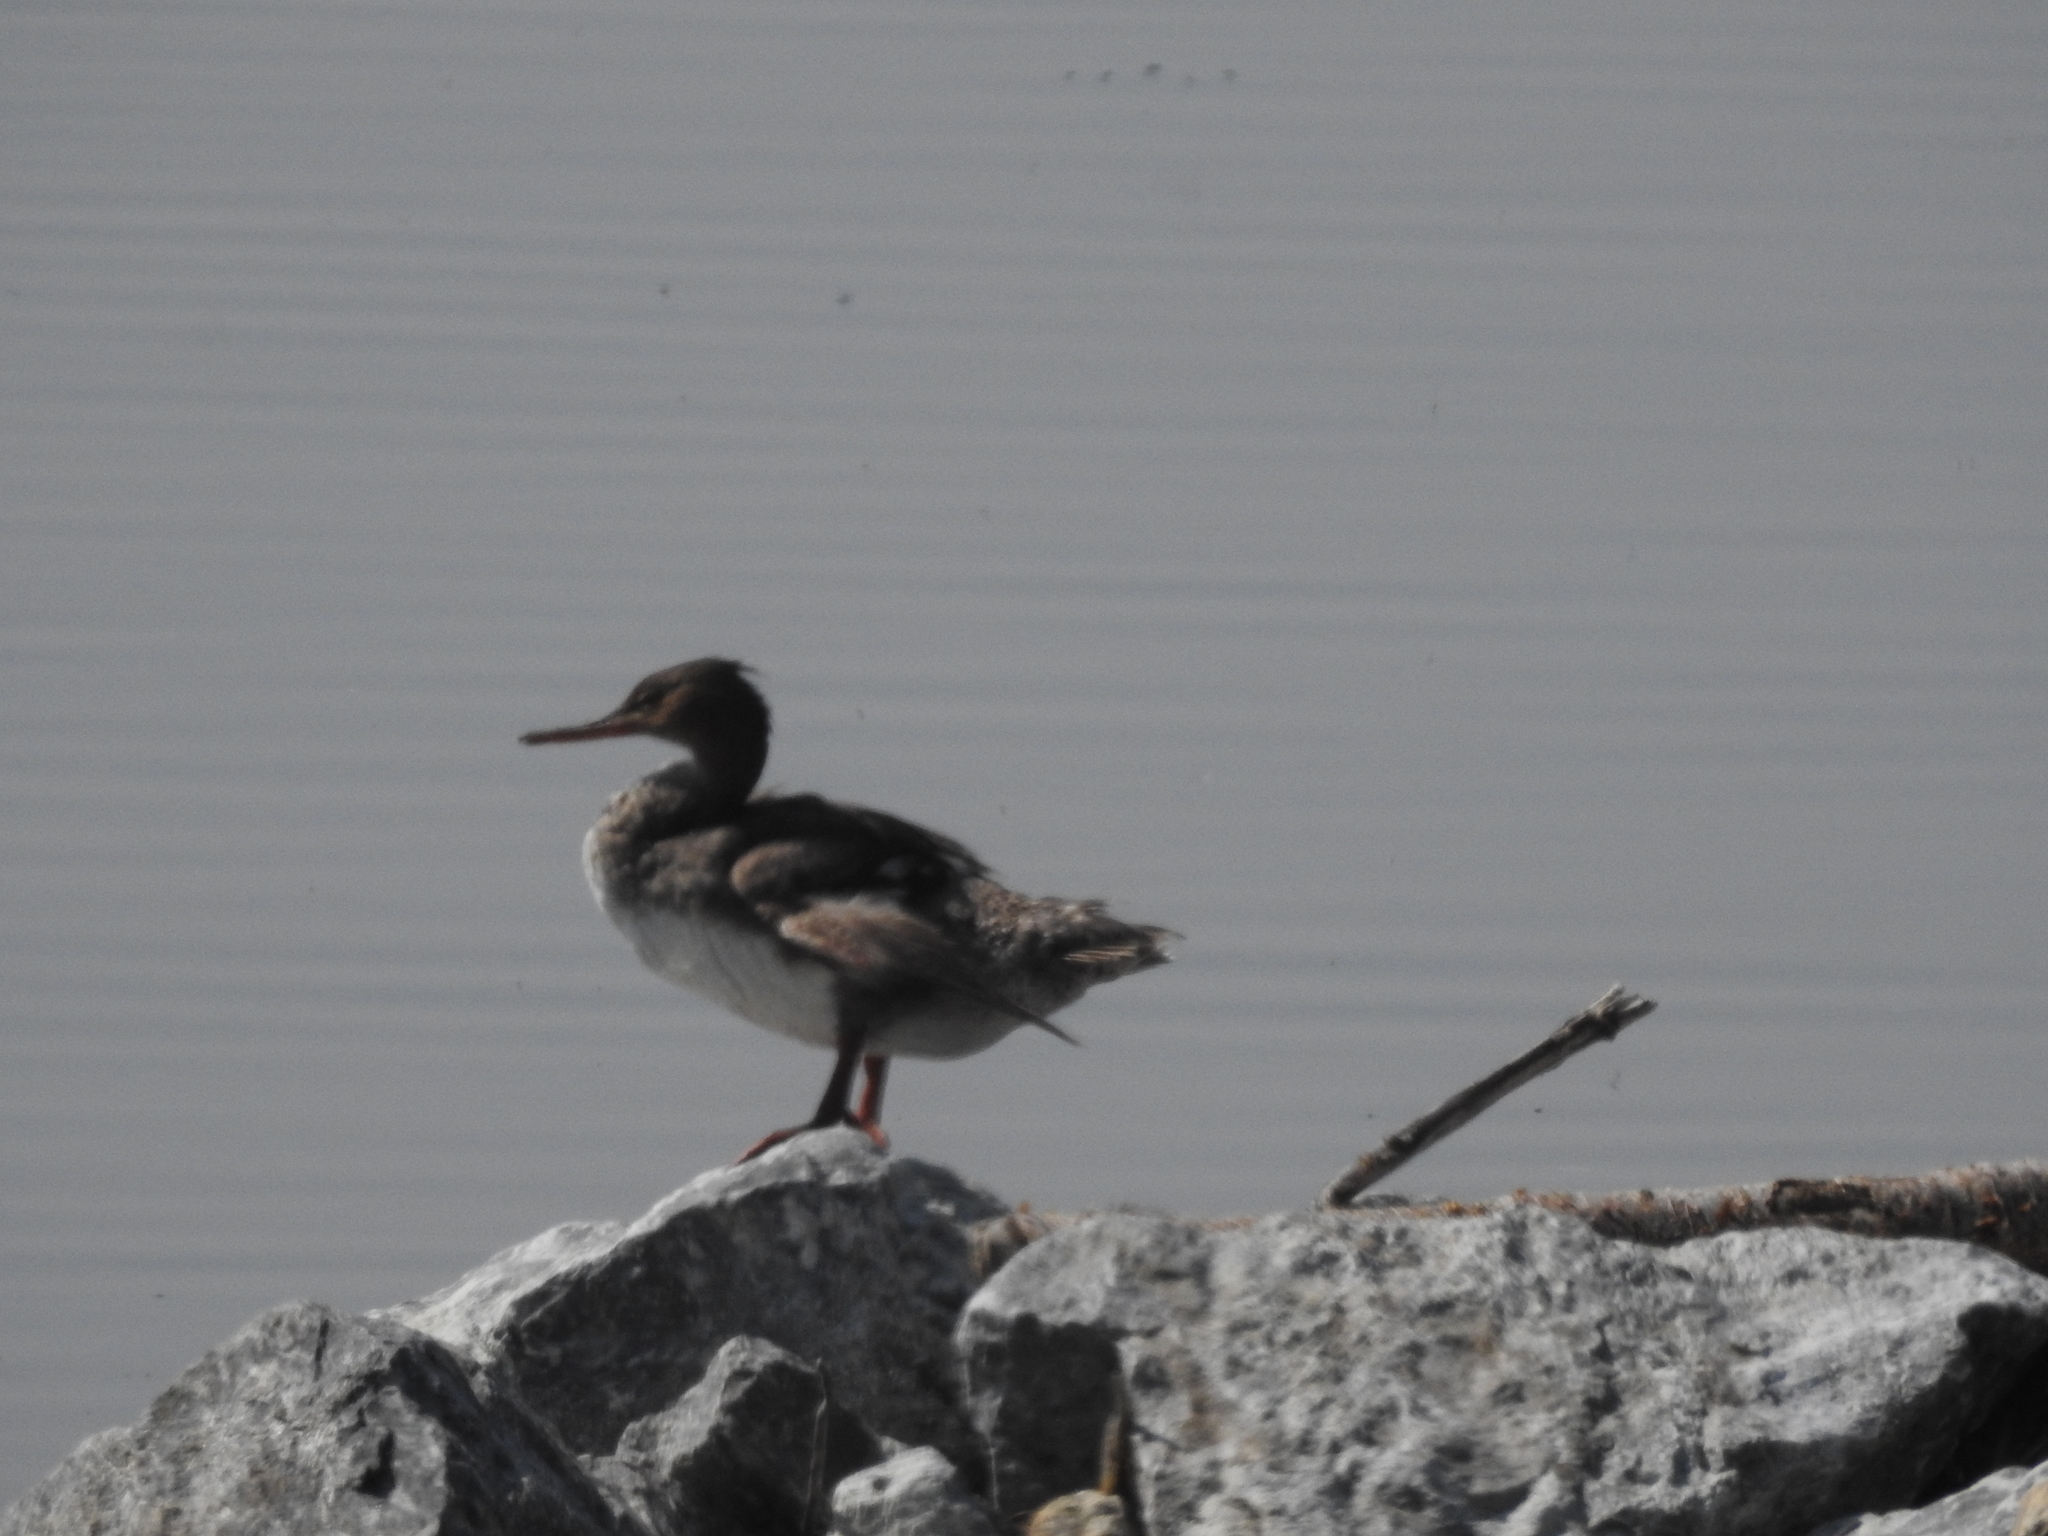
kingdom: Animalia
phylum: Chordata
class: Aves
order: Anseriformes
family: Anatidae
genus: Mergus
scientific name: Mergus serrator
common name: Red-breasted merganser
